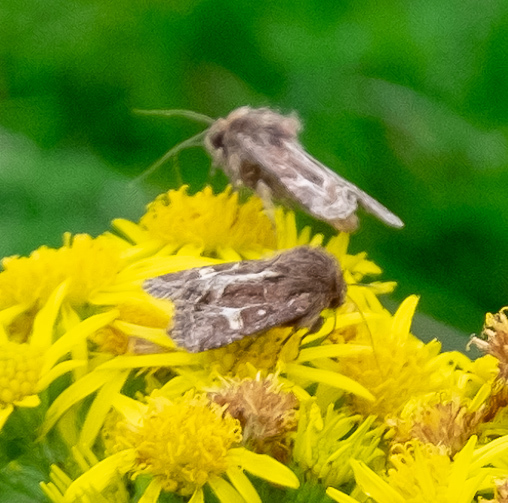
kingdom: Animalia
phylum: Arthropoda
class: Insecta
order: Lepidoptera
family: Noctuidae
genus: Celaena
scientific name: Celaena haworthii
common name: Haworth's minor
